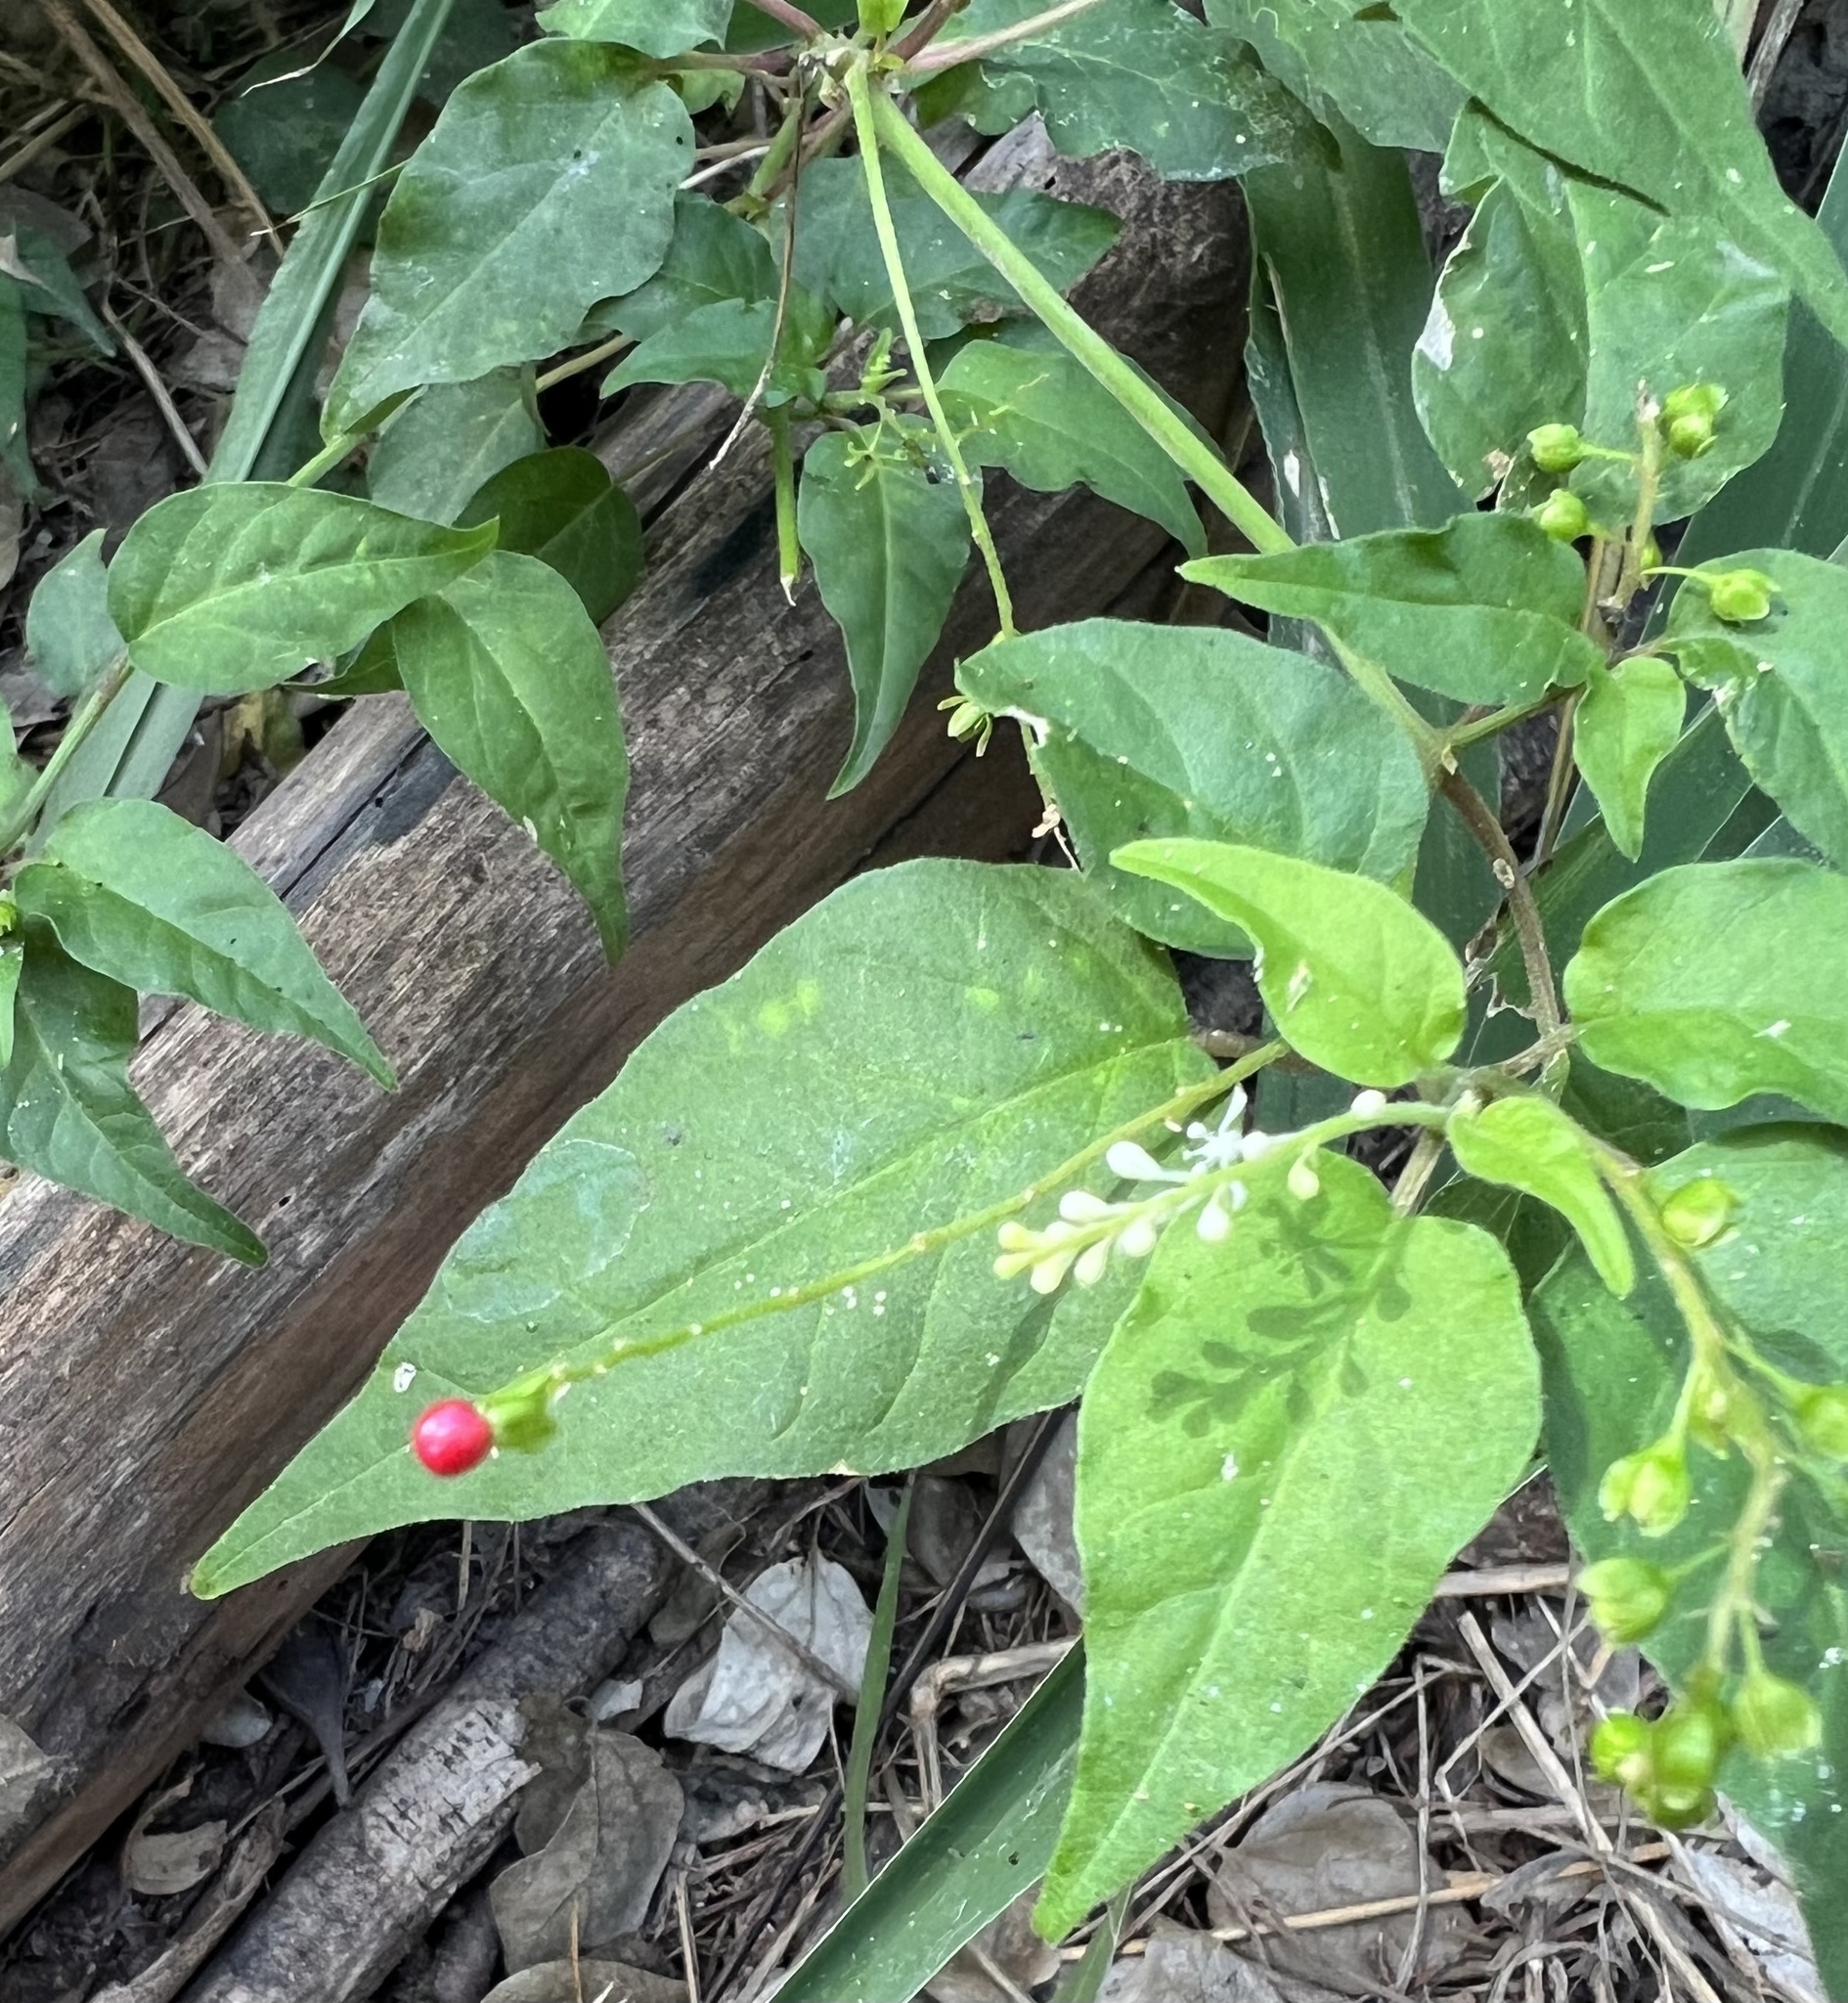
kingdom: Plantae
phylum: Tracheophyta
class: Magnoliopsida
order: Caryophyllales
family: Phytolaccaceae
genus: Rivina
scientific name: Rivina humilis
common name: Rougeplant
